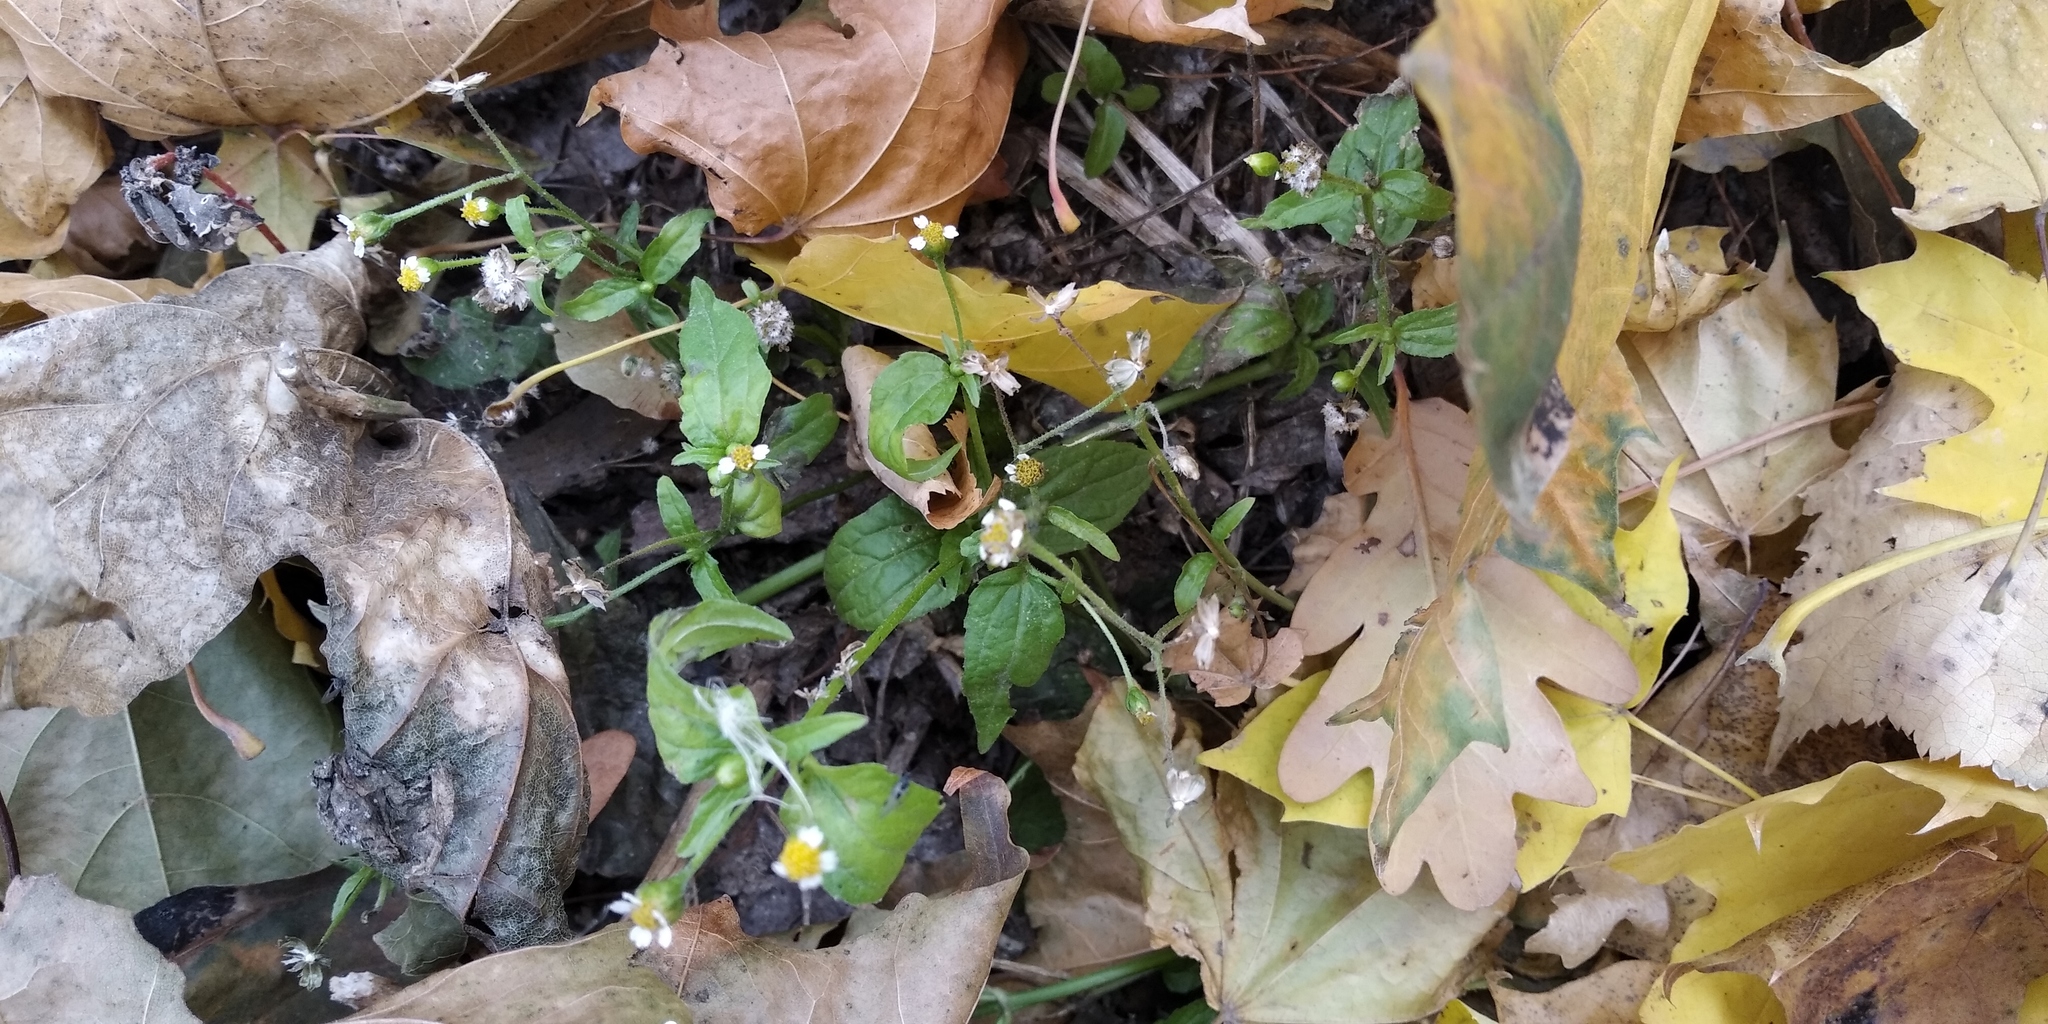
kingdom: Plantae
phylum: Tracheophyta
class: Magnoliopsida
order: Asterales
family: Asteraceae
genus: Galinsoga
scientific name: Galinsoga parviflora
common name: Gallant soldier
